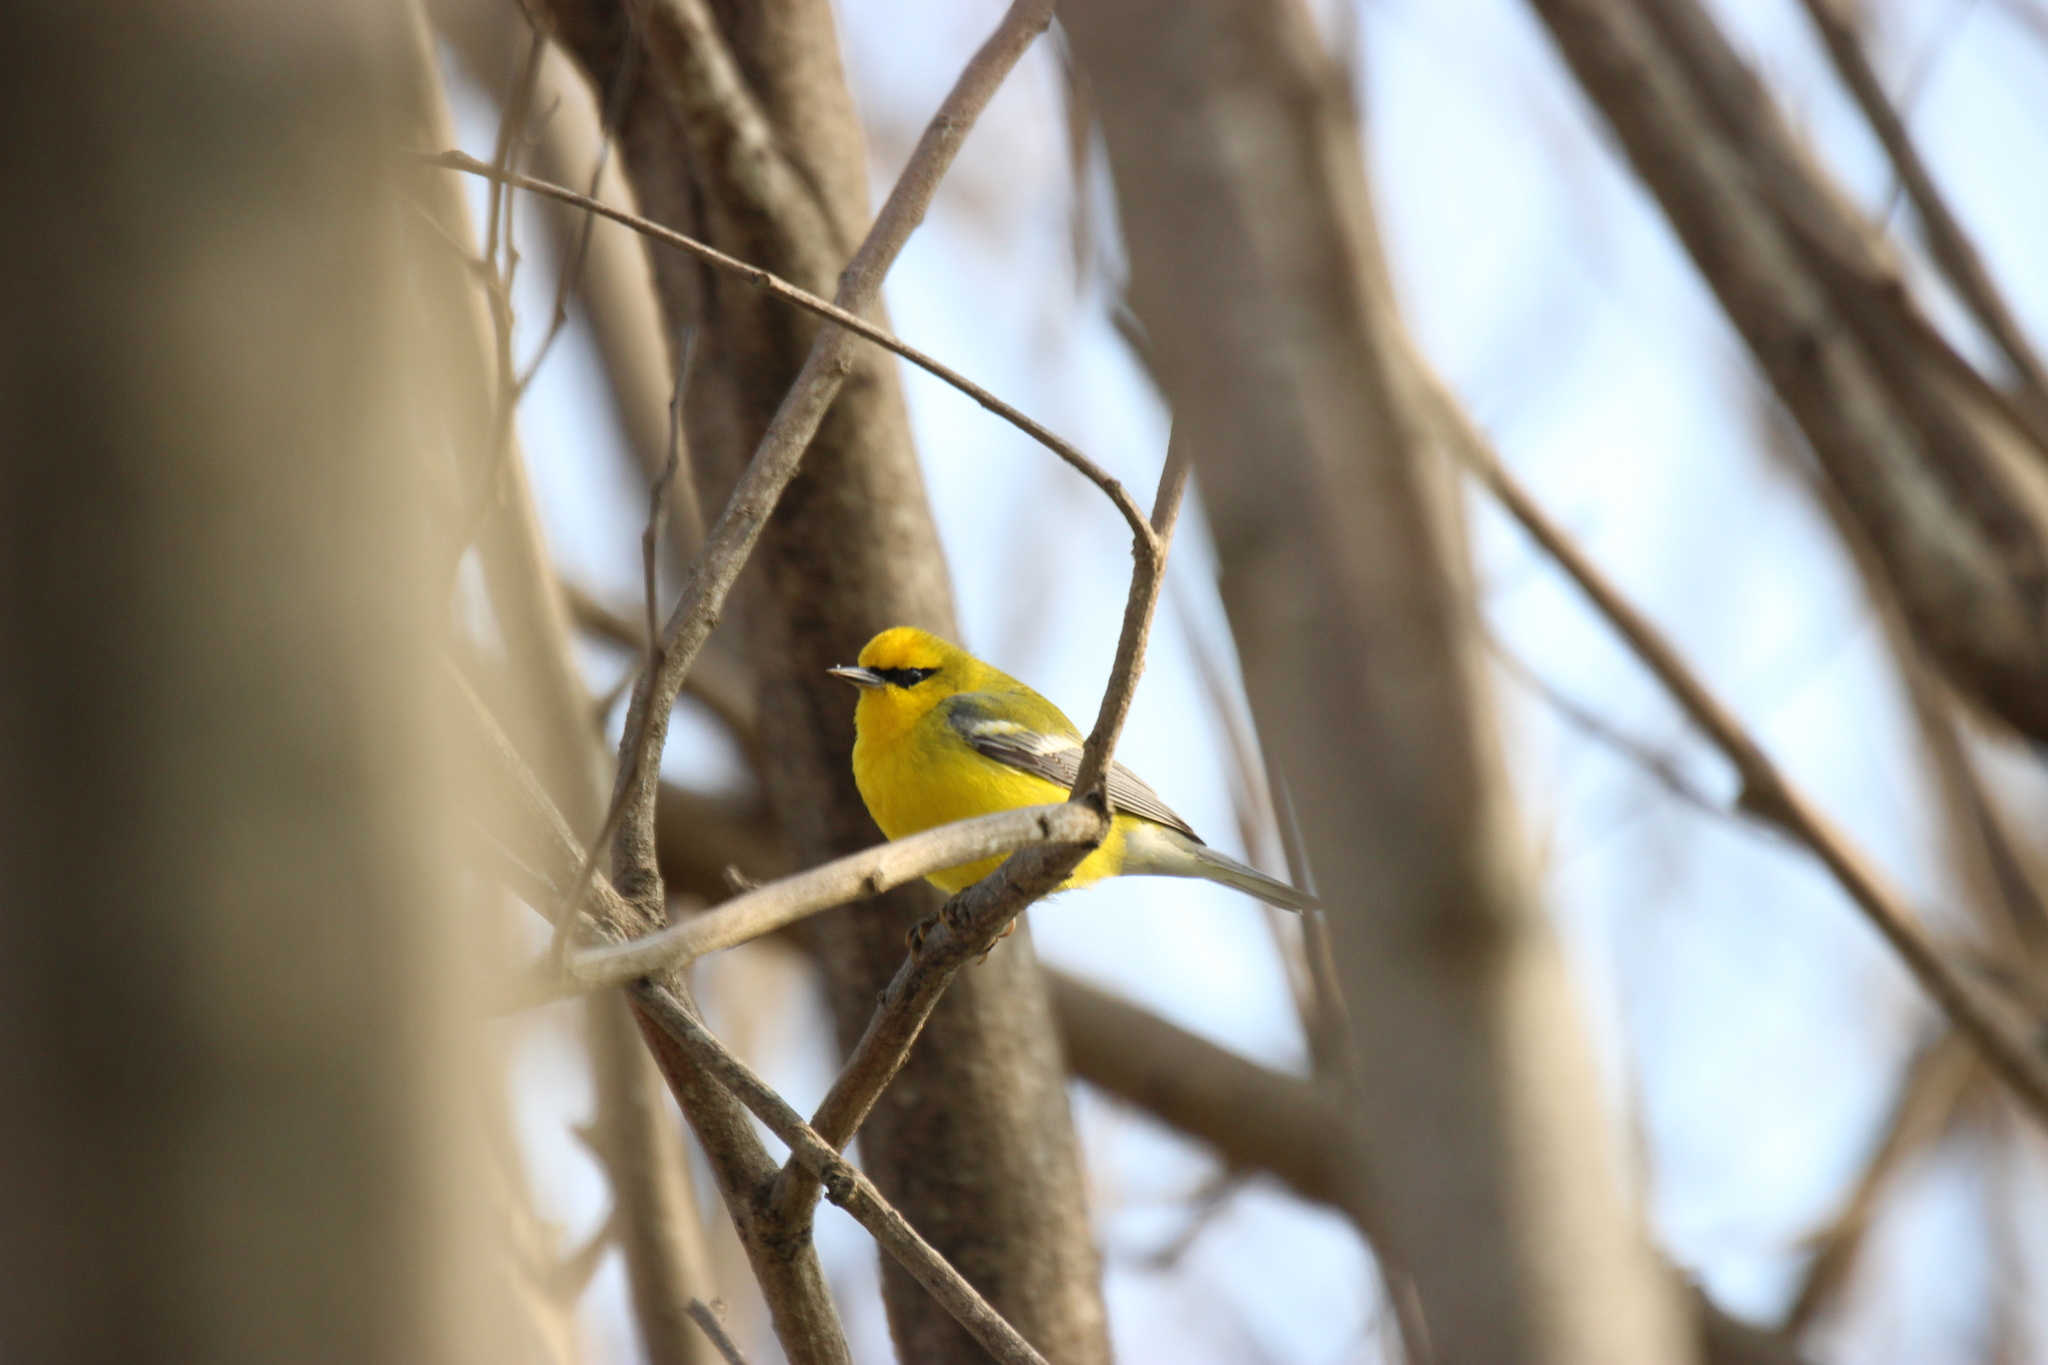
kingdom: Animalia
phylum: Chordata
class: Aves
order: Passeriformes
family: Parulidae
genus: Vermivora
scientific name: Vermivora cyanoptera
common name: Blue-winged warbler
